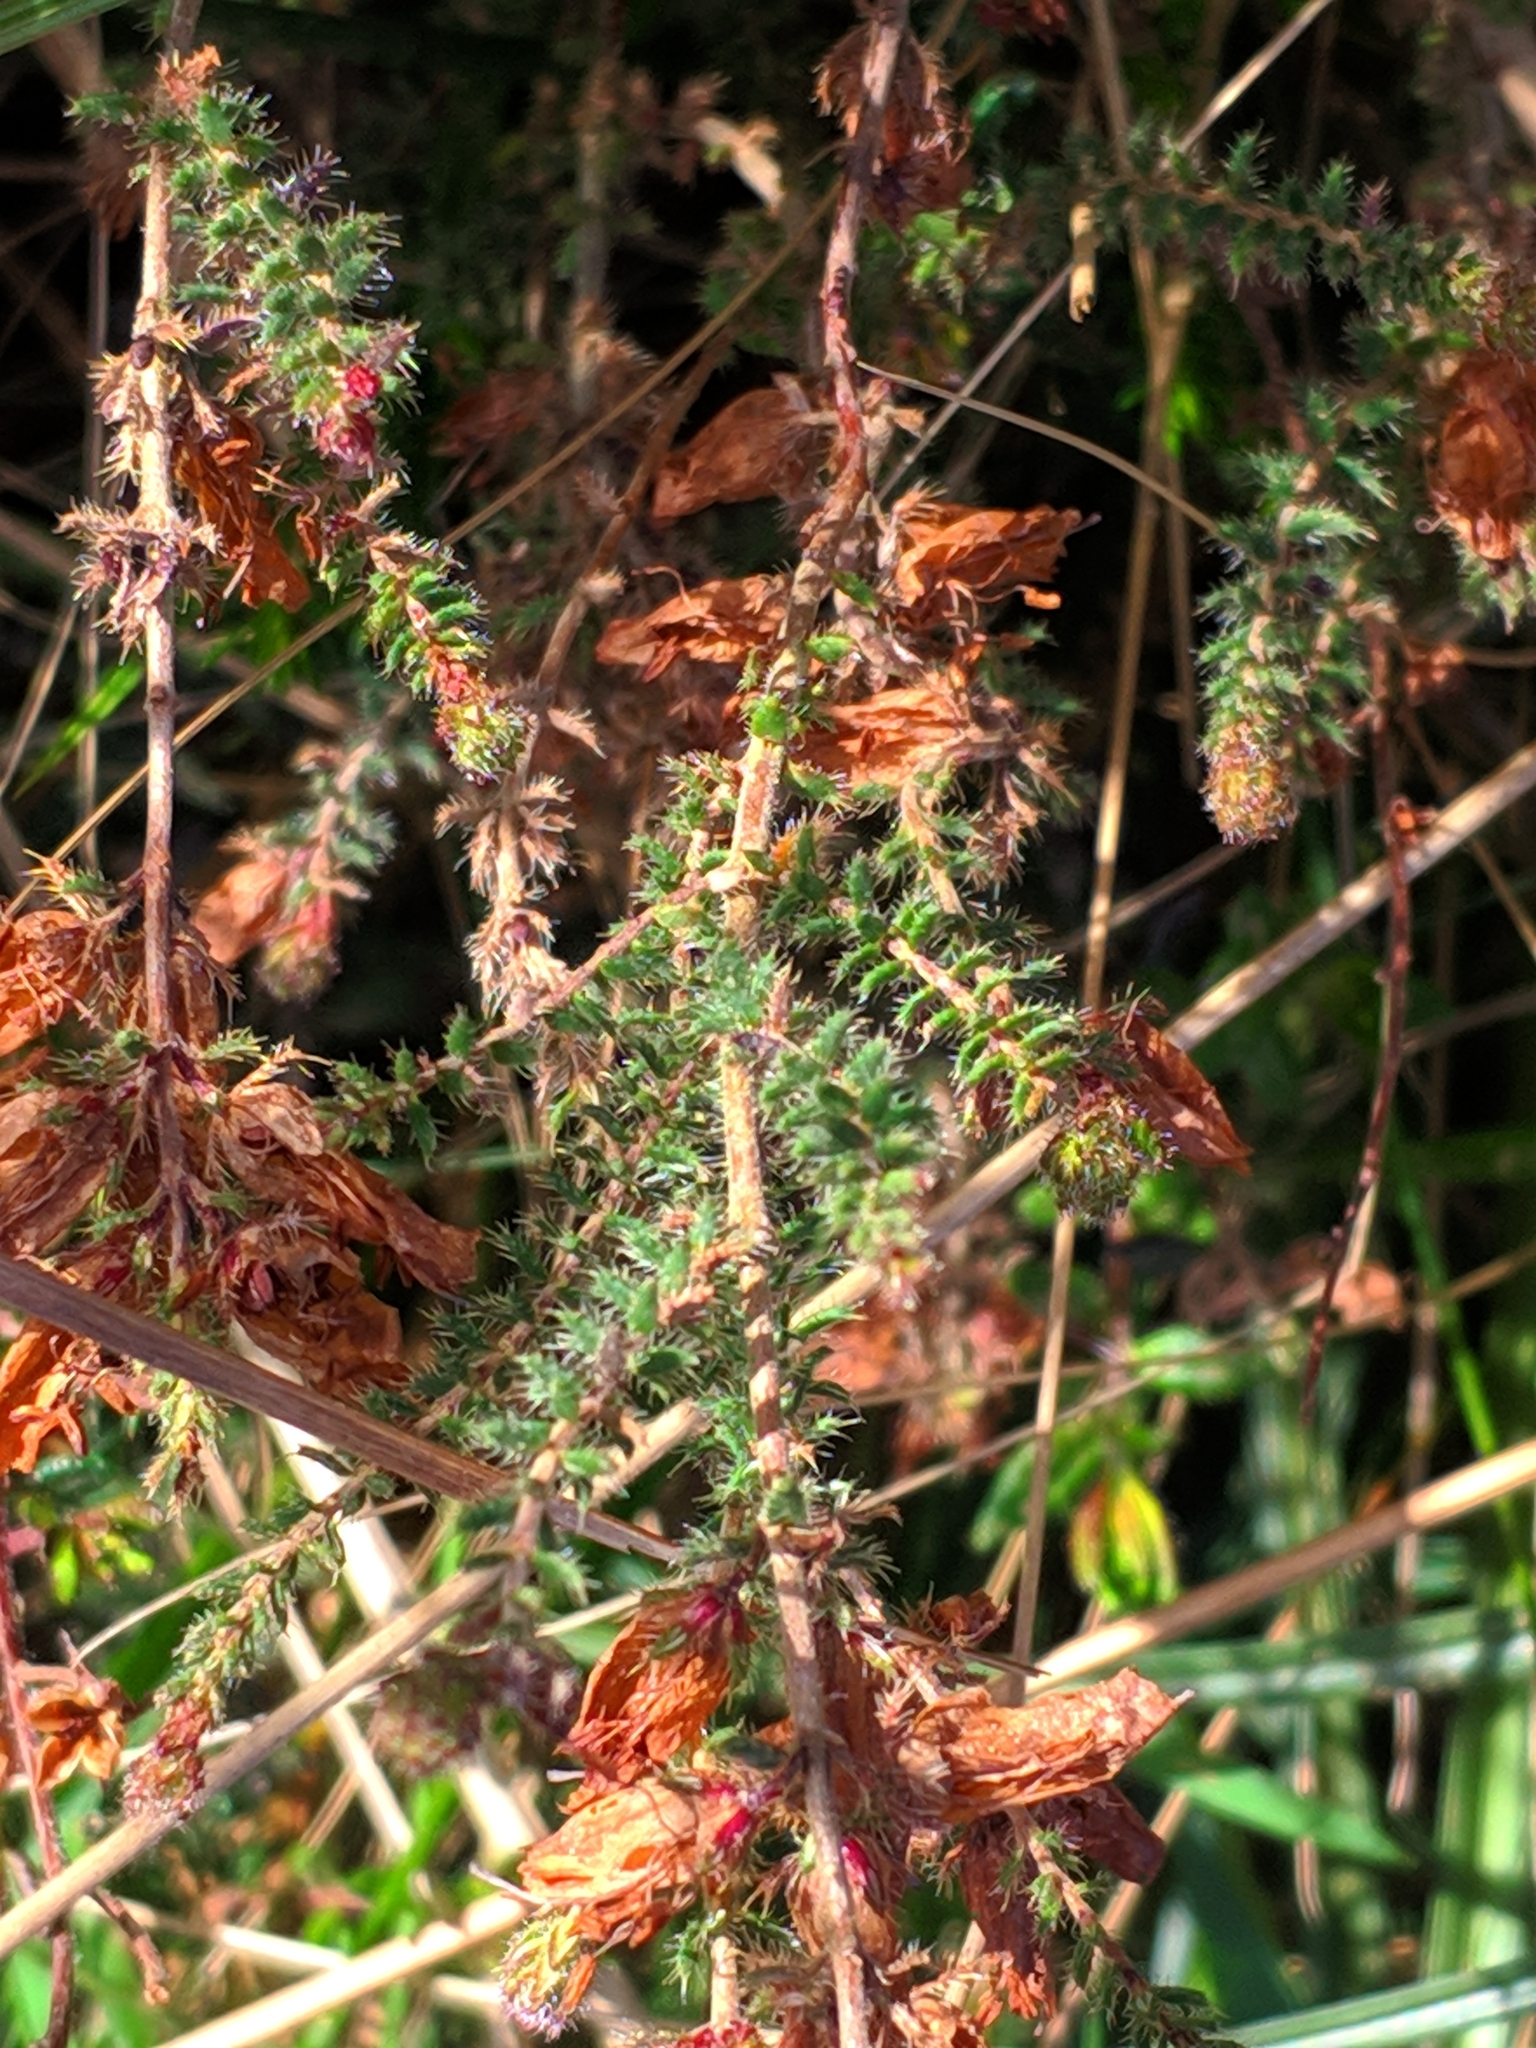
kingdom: Plantae
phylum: Tracheophyta
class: Magnoliopsida
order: Ericales
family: Ericaceae
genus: Erica
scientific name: Erica ciliaris
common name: Dorset heath
